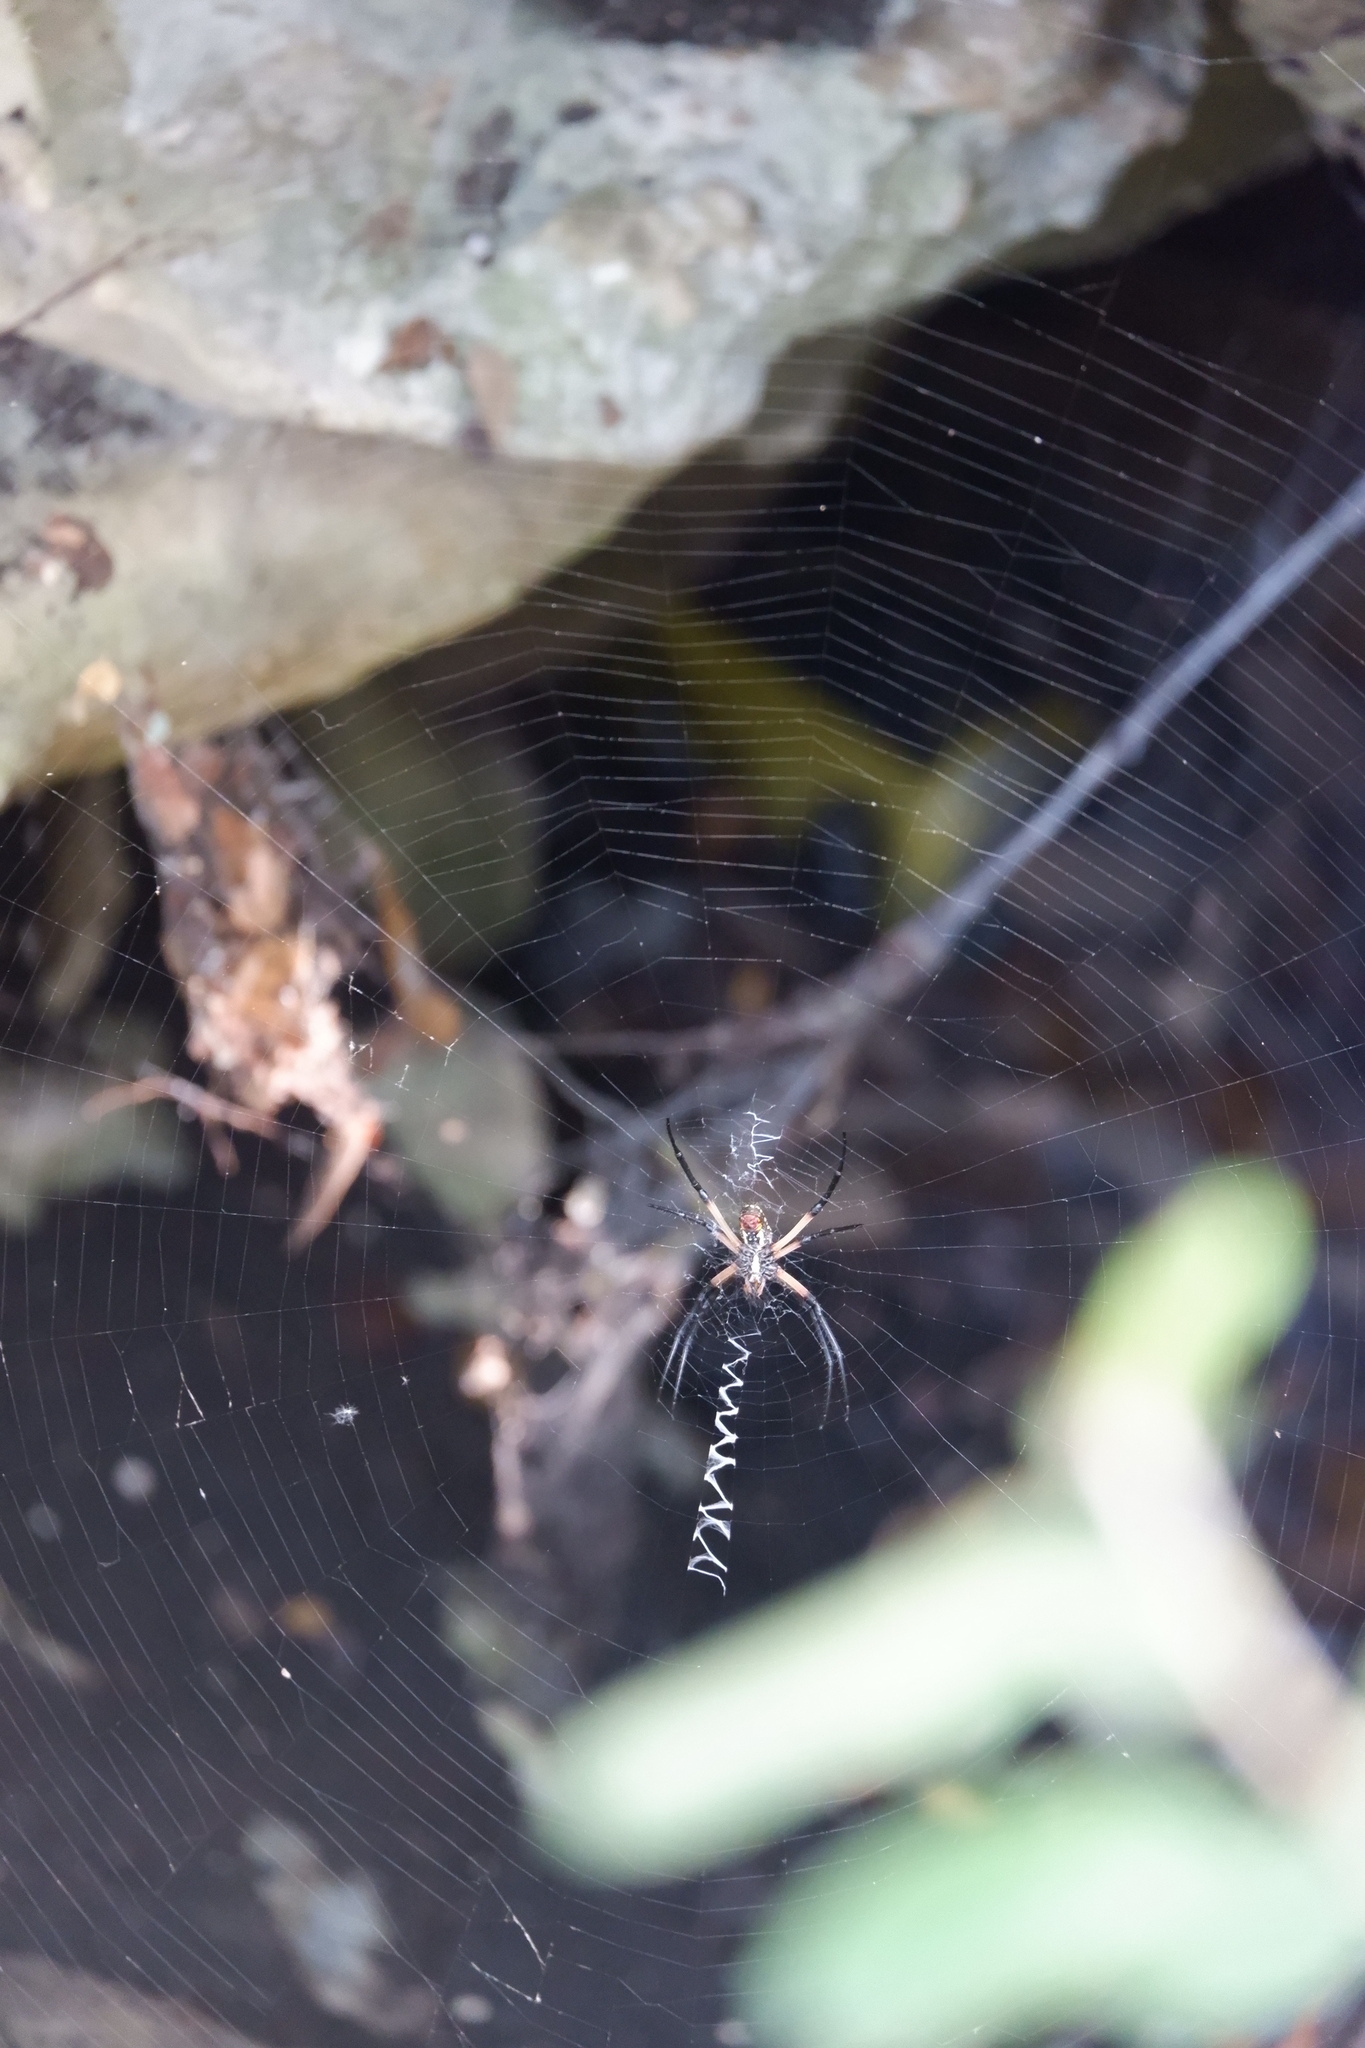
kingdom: Animalia
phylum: Arthropoda
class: Arachnida
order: Araneae
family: Araneidae
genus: Argiope
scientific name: Argiope aurantia
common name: Orb weavers
